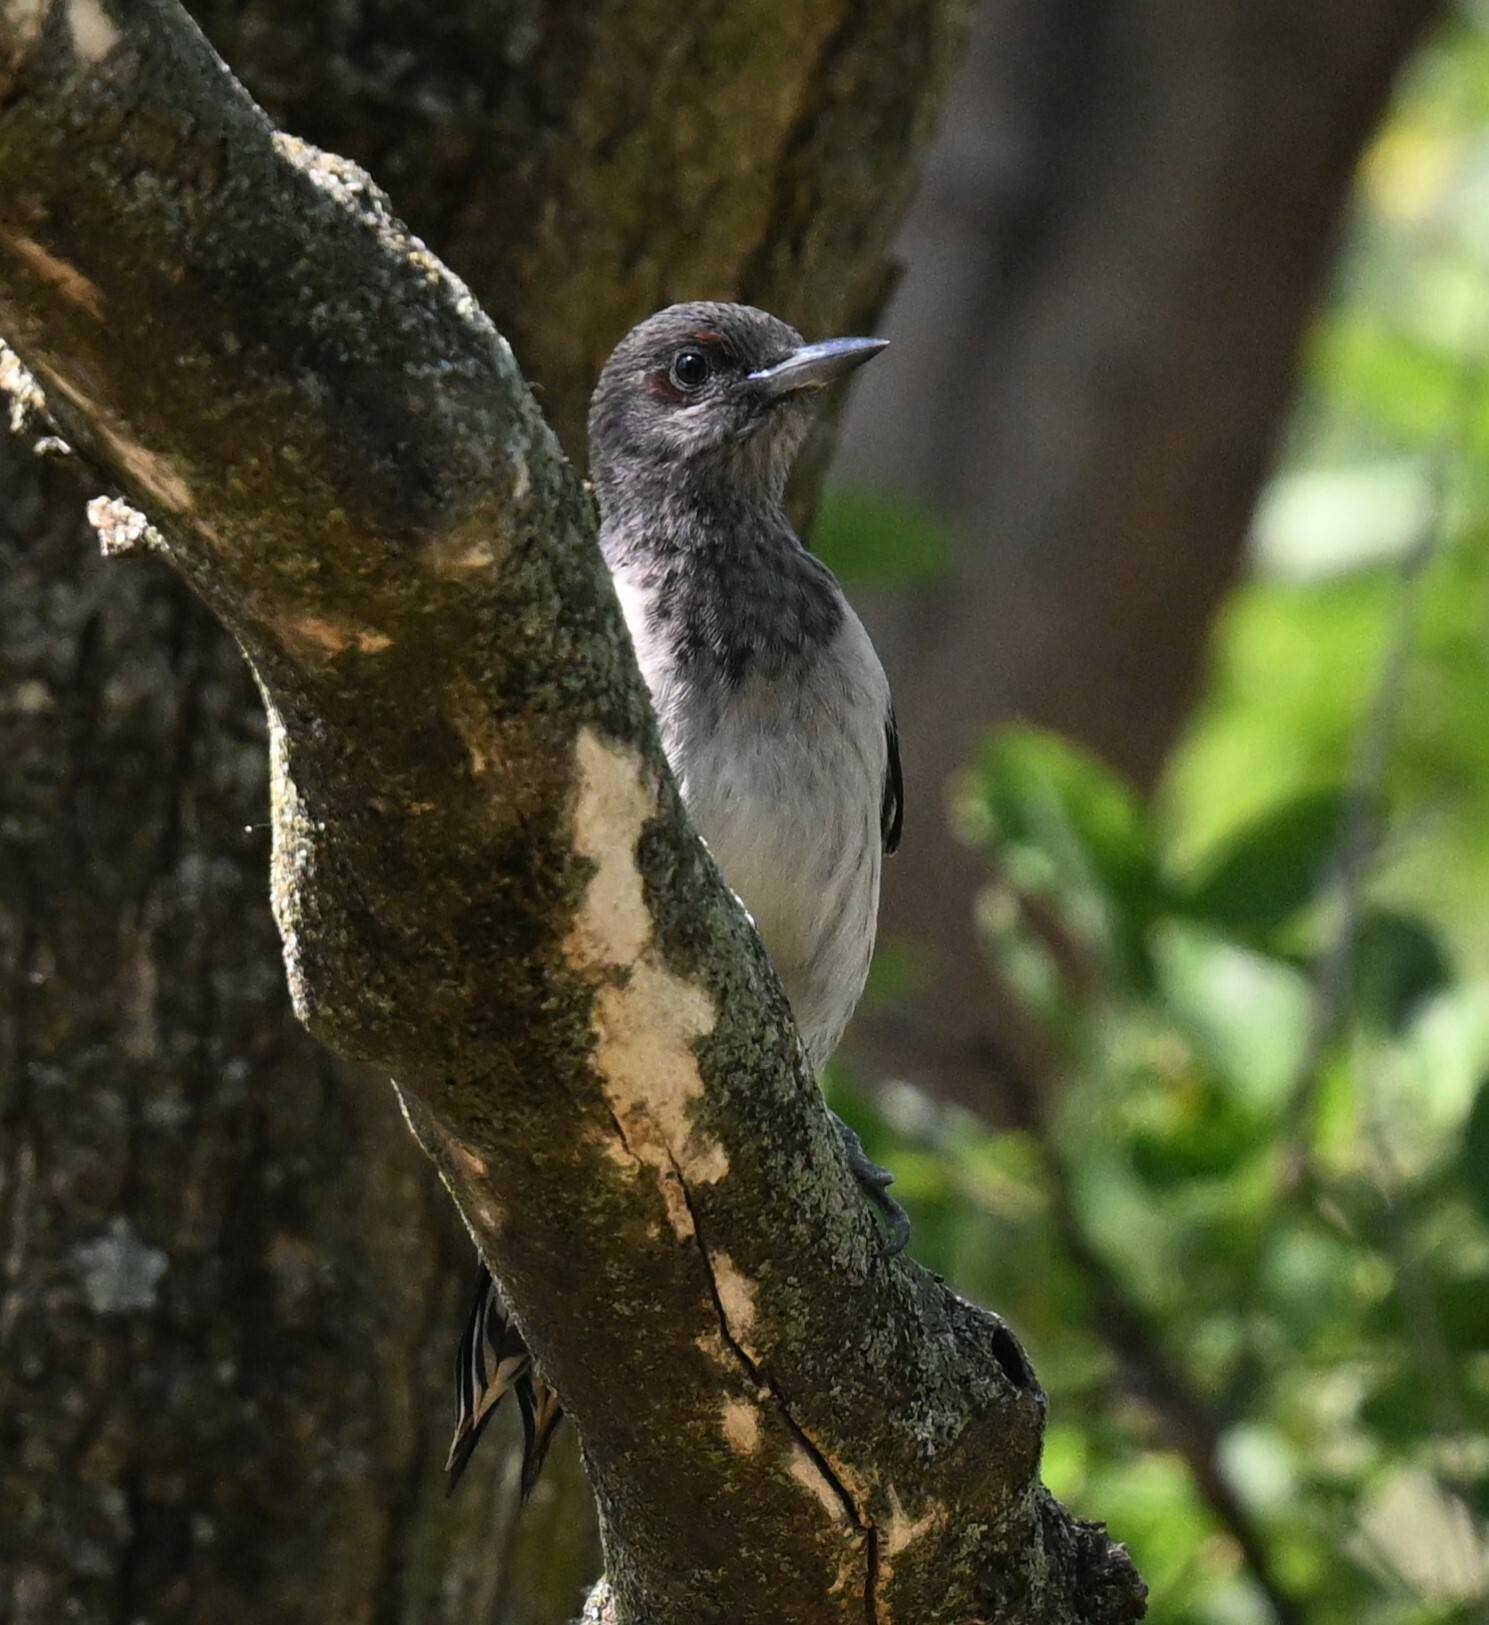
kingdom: Animalia
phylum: Chordata
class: Aves
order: Piciformes
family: Picidae
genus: Melanerpes
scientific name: Melanerpes erythrocephalus
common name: Red-headed woodpecker
